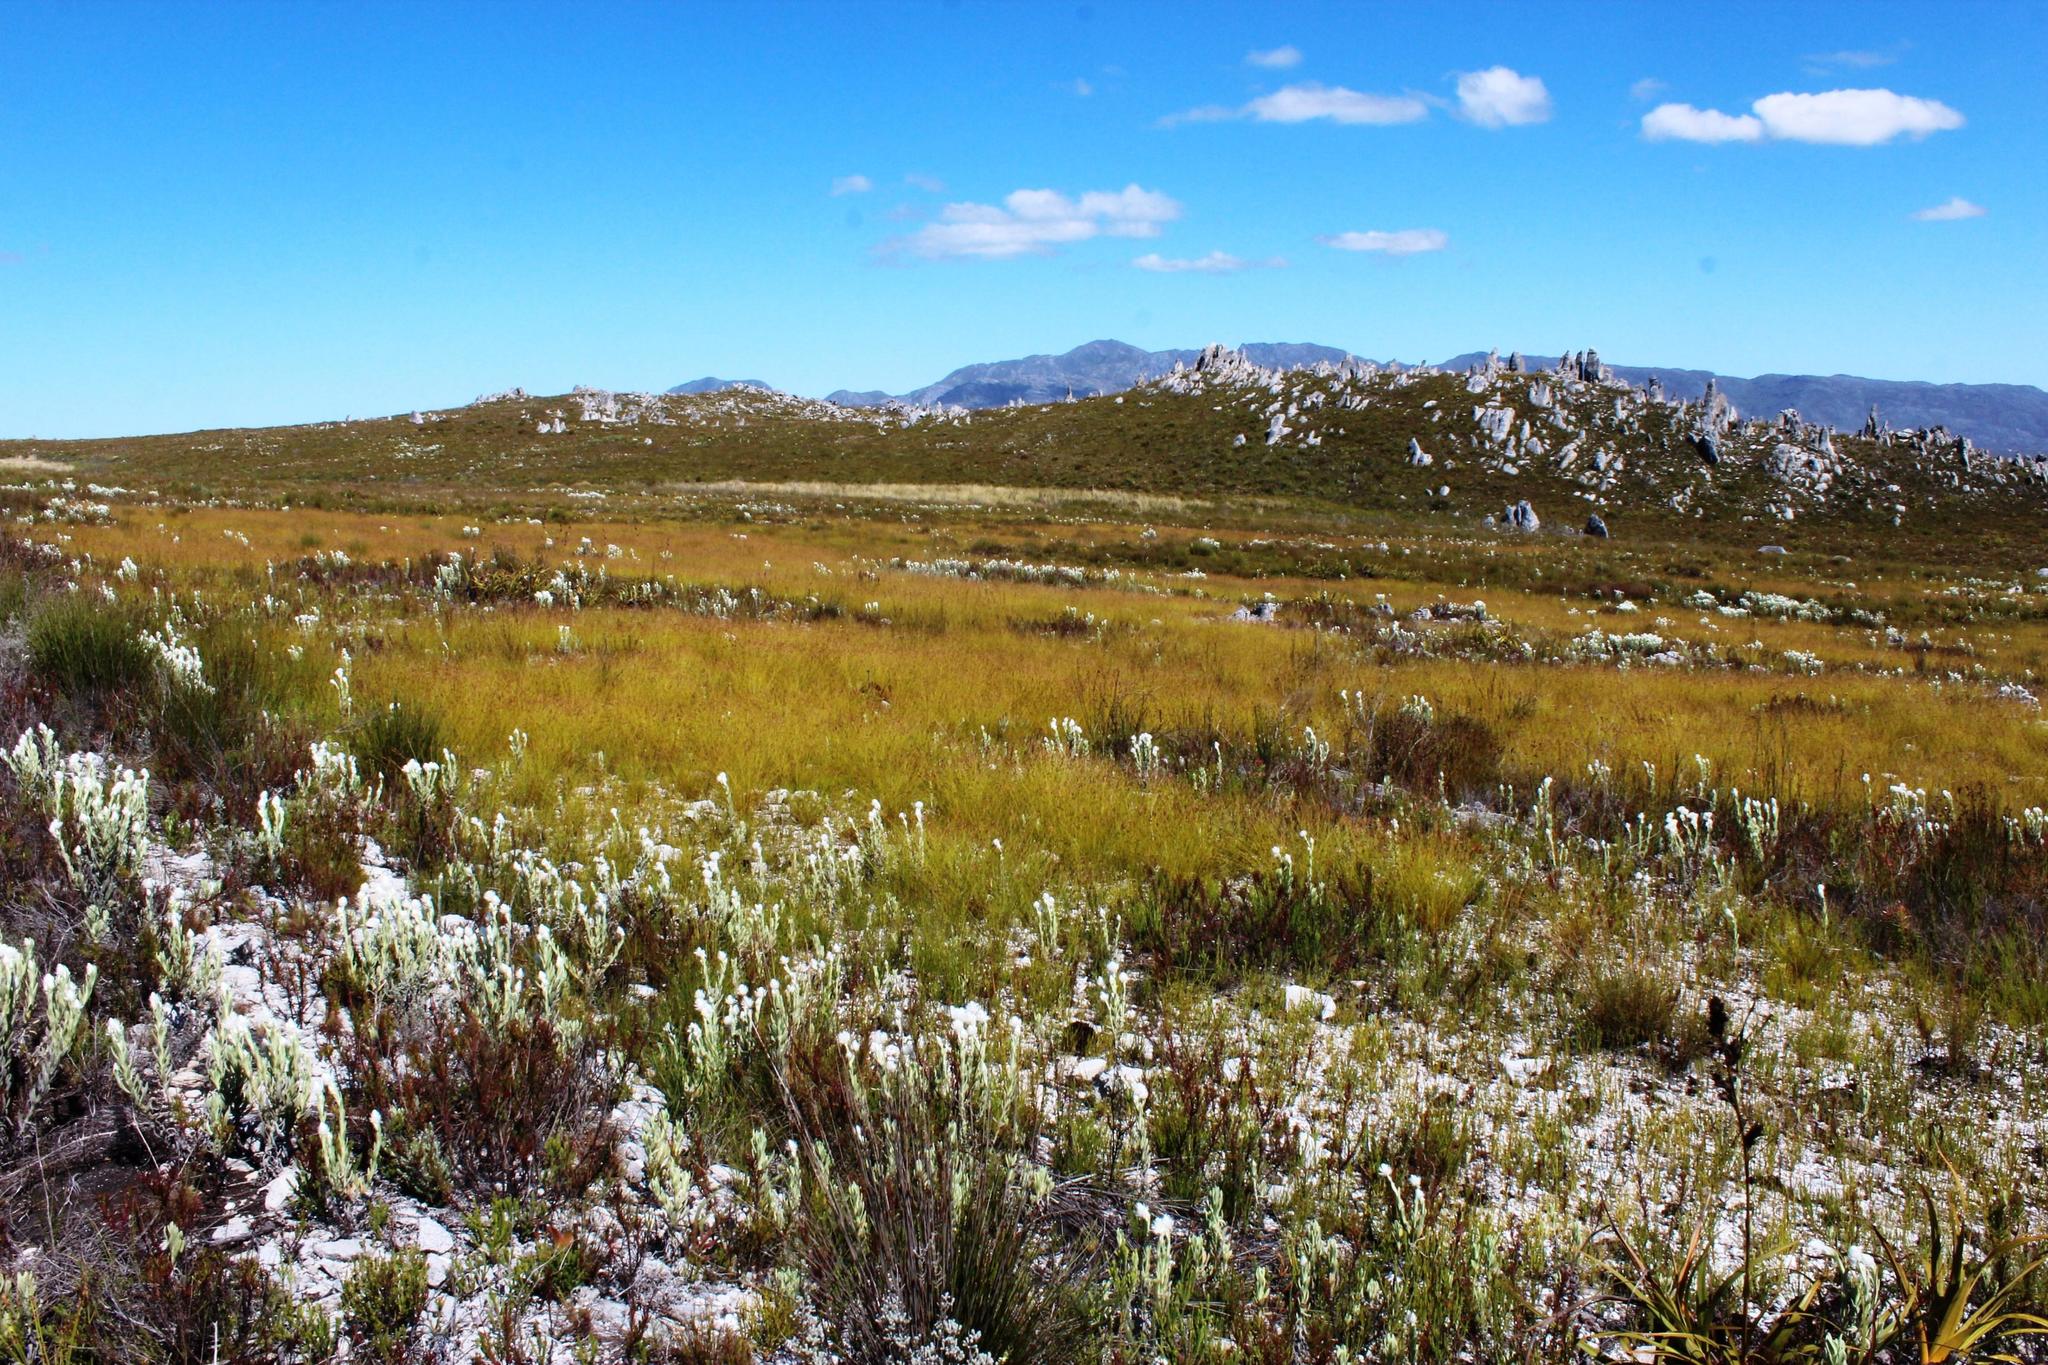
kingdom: Plantae
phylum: Tracheophyta
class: Magnoliopsida
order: Asterales
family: Asteraceae
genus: Syncarpha
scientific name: Syncarpha vestita
